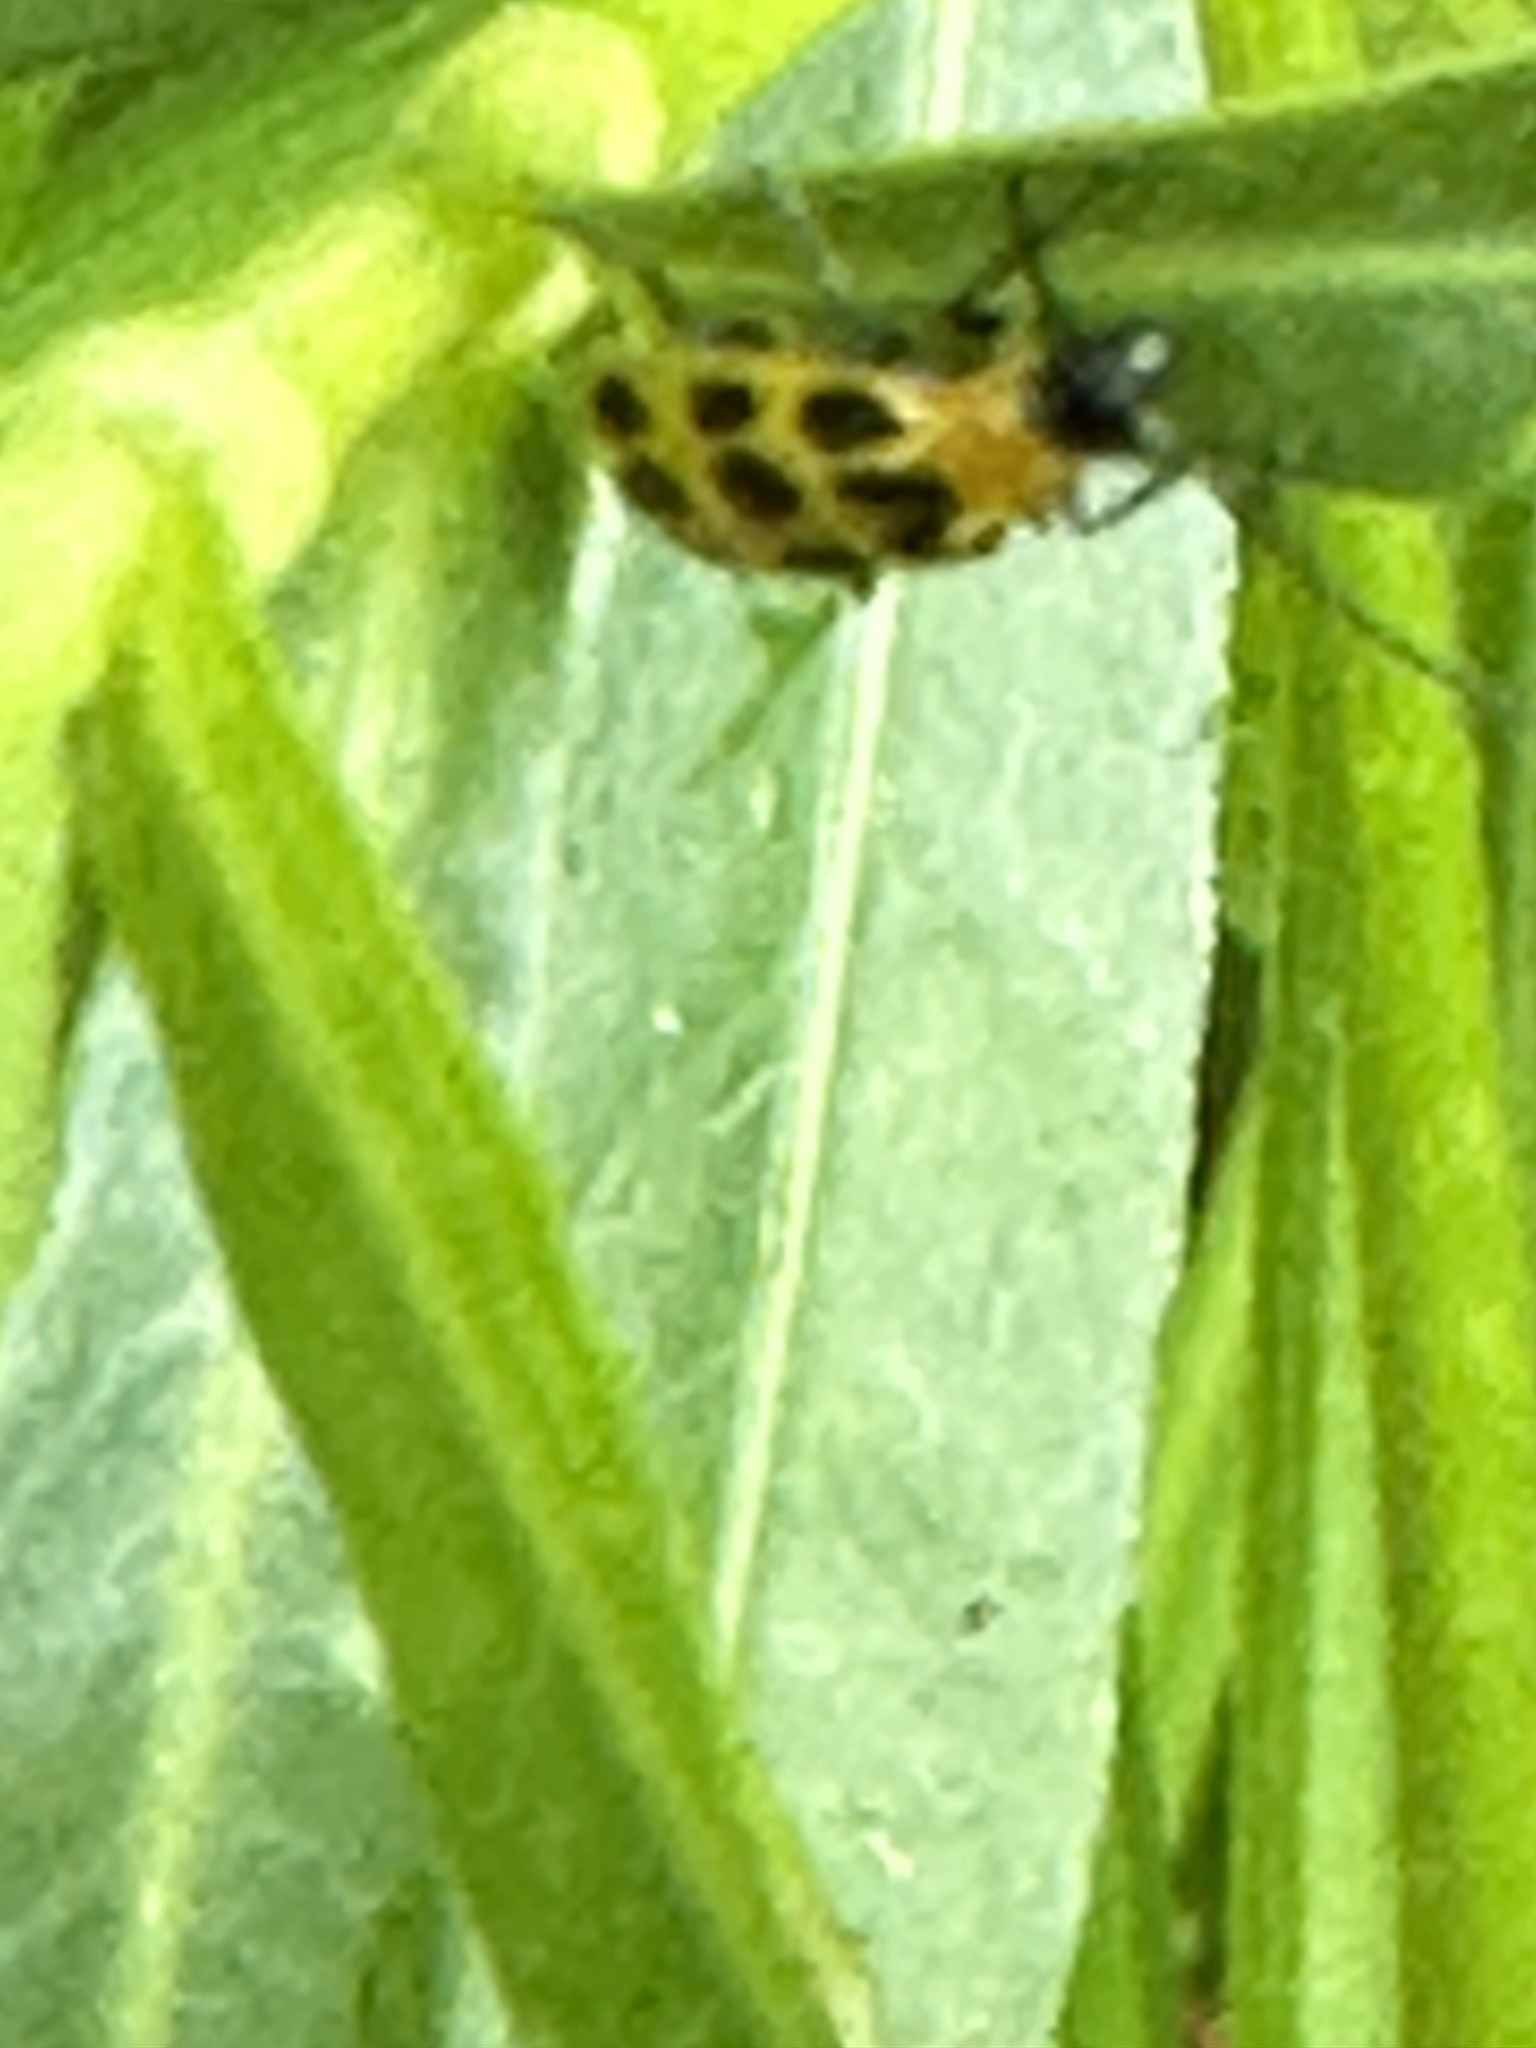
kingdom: Animalia
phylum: Arthropoda
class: Insecta
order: Coleoptera
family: Chrysomelidae
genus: Diabrotica
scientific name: Diabrotica undecimpunctata
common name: Spotted cucumber beetle
